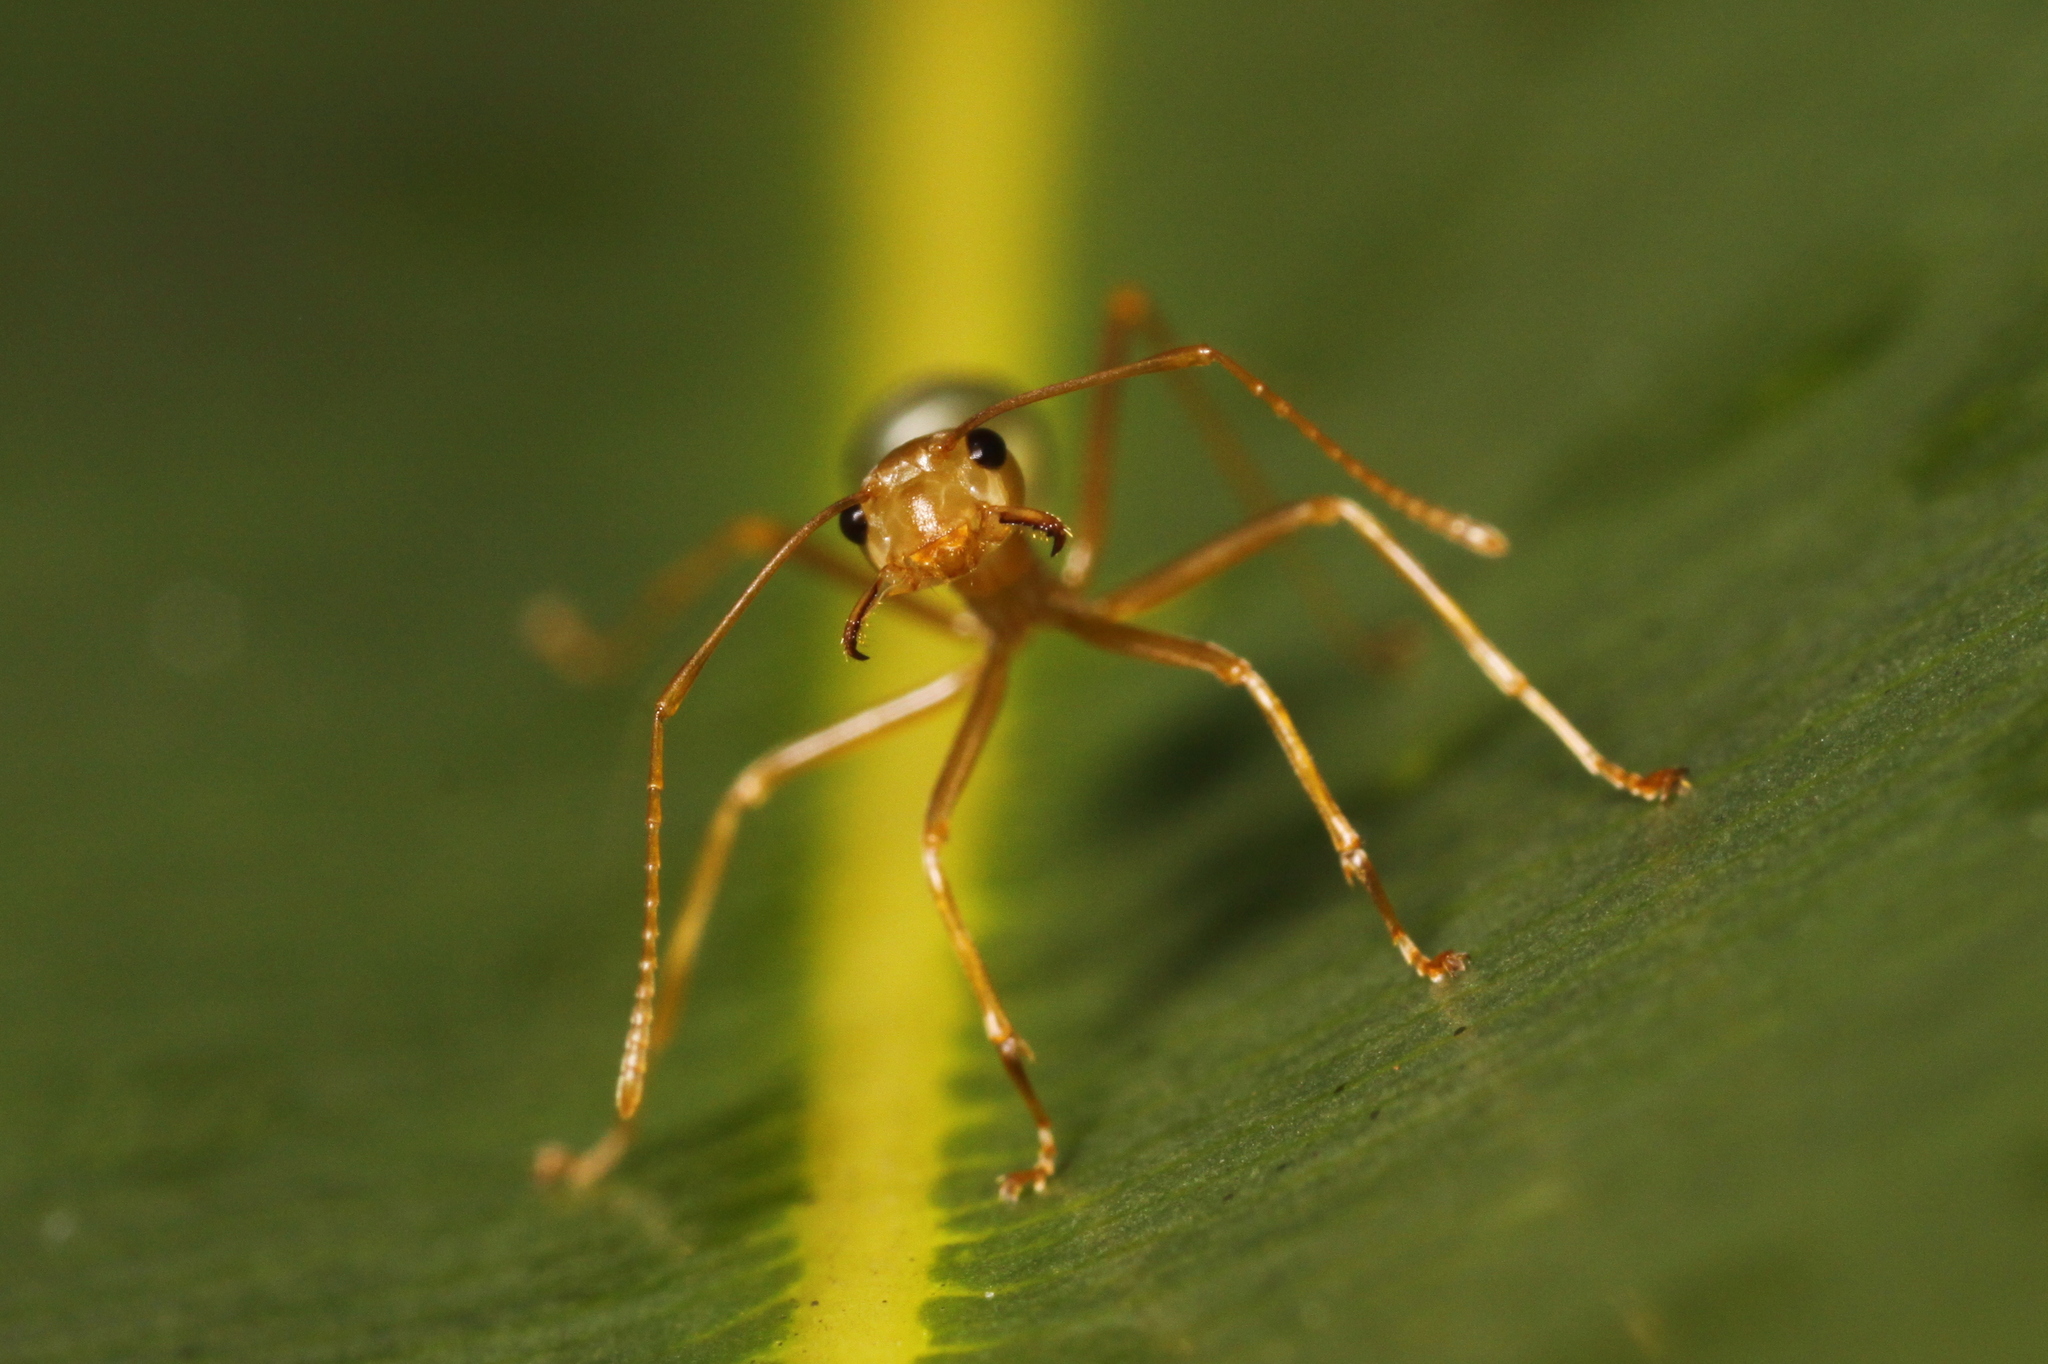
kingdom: Animalia
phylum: Arthropoda
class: Insecta
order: Hymenoptera
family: Formicidae
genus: Oecophylla
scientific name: Oecophylla smaragdina
